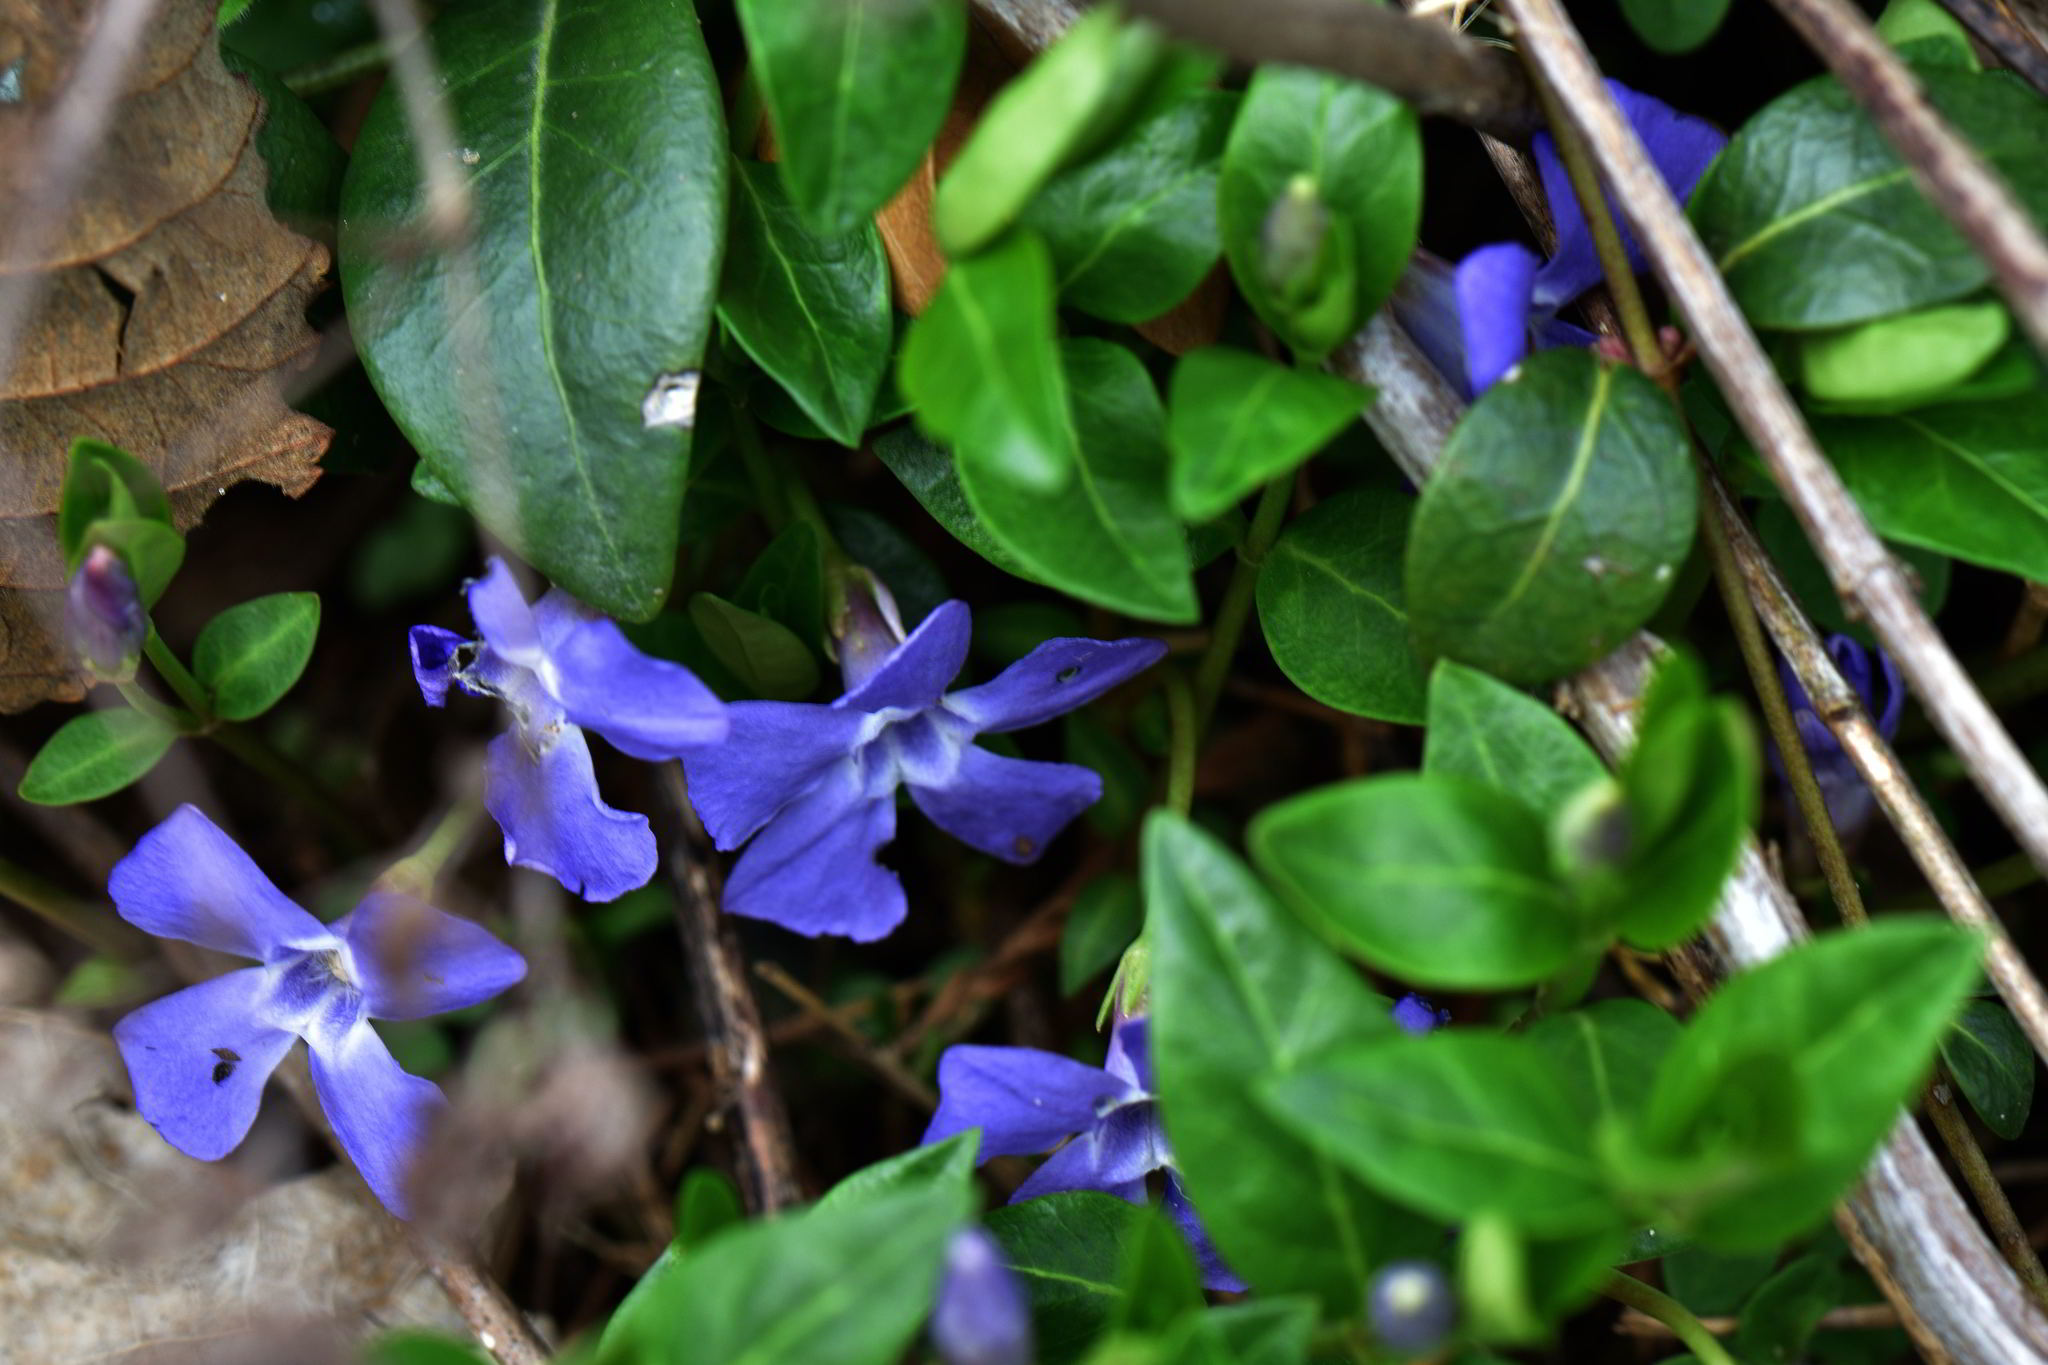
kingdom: Plantae
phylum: Tracheophyta
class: Magnoliopsida
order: Gentianales
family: Apocynaceae
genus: Vinca
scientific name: Vinca minor
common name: Lesser periwinkle
